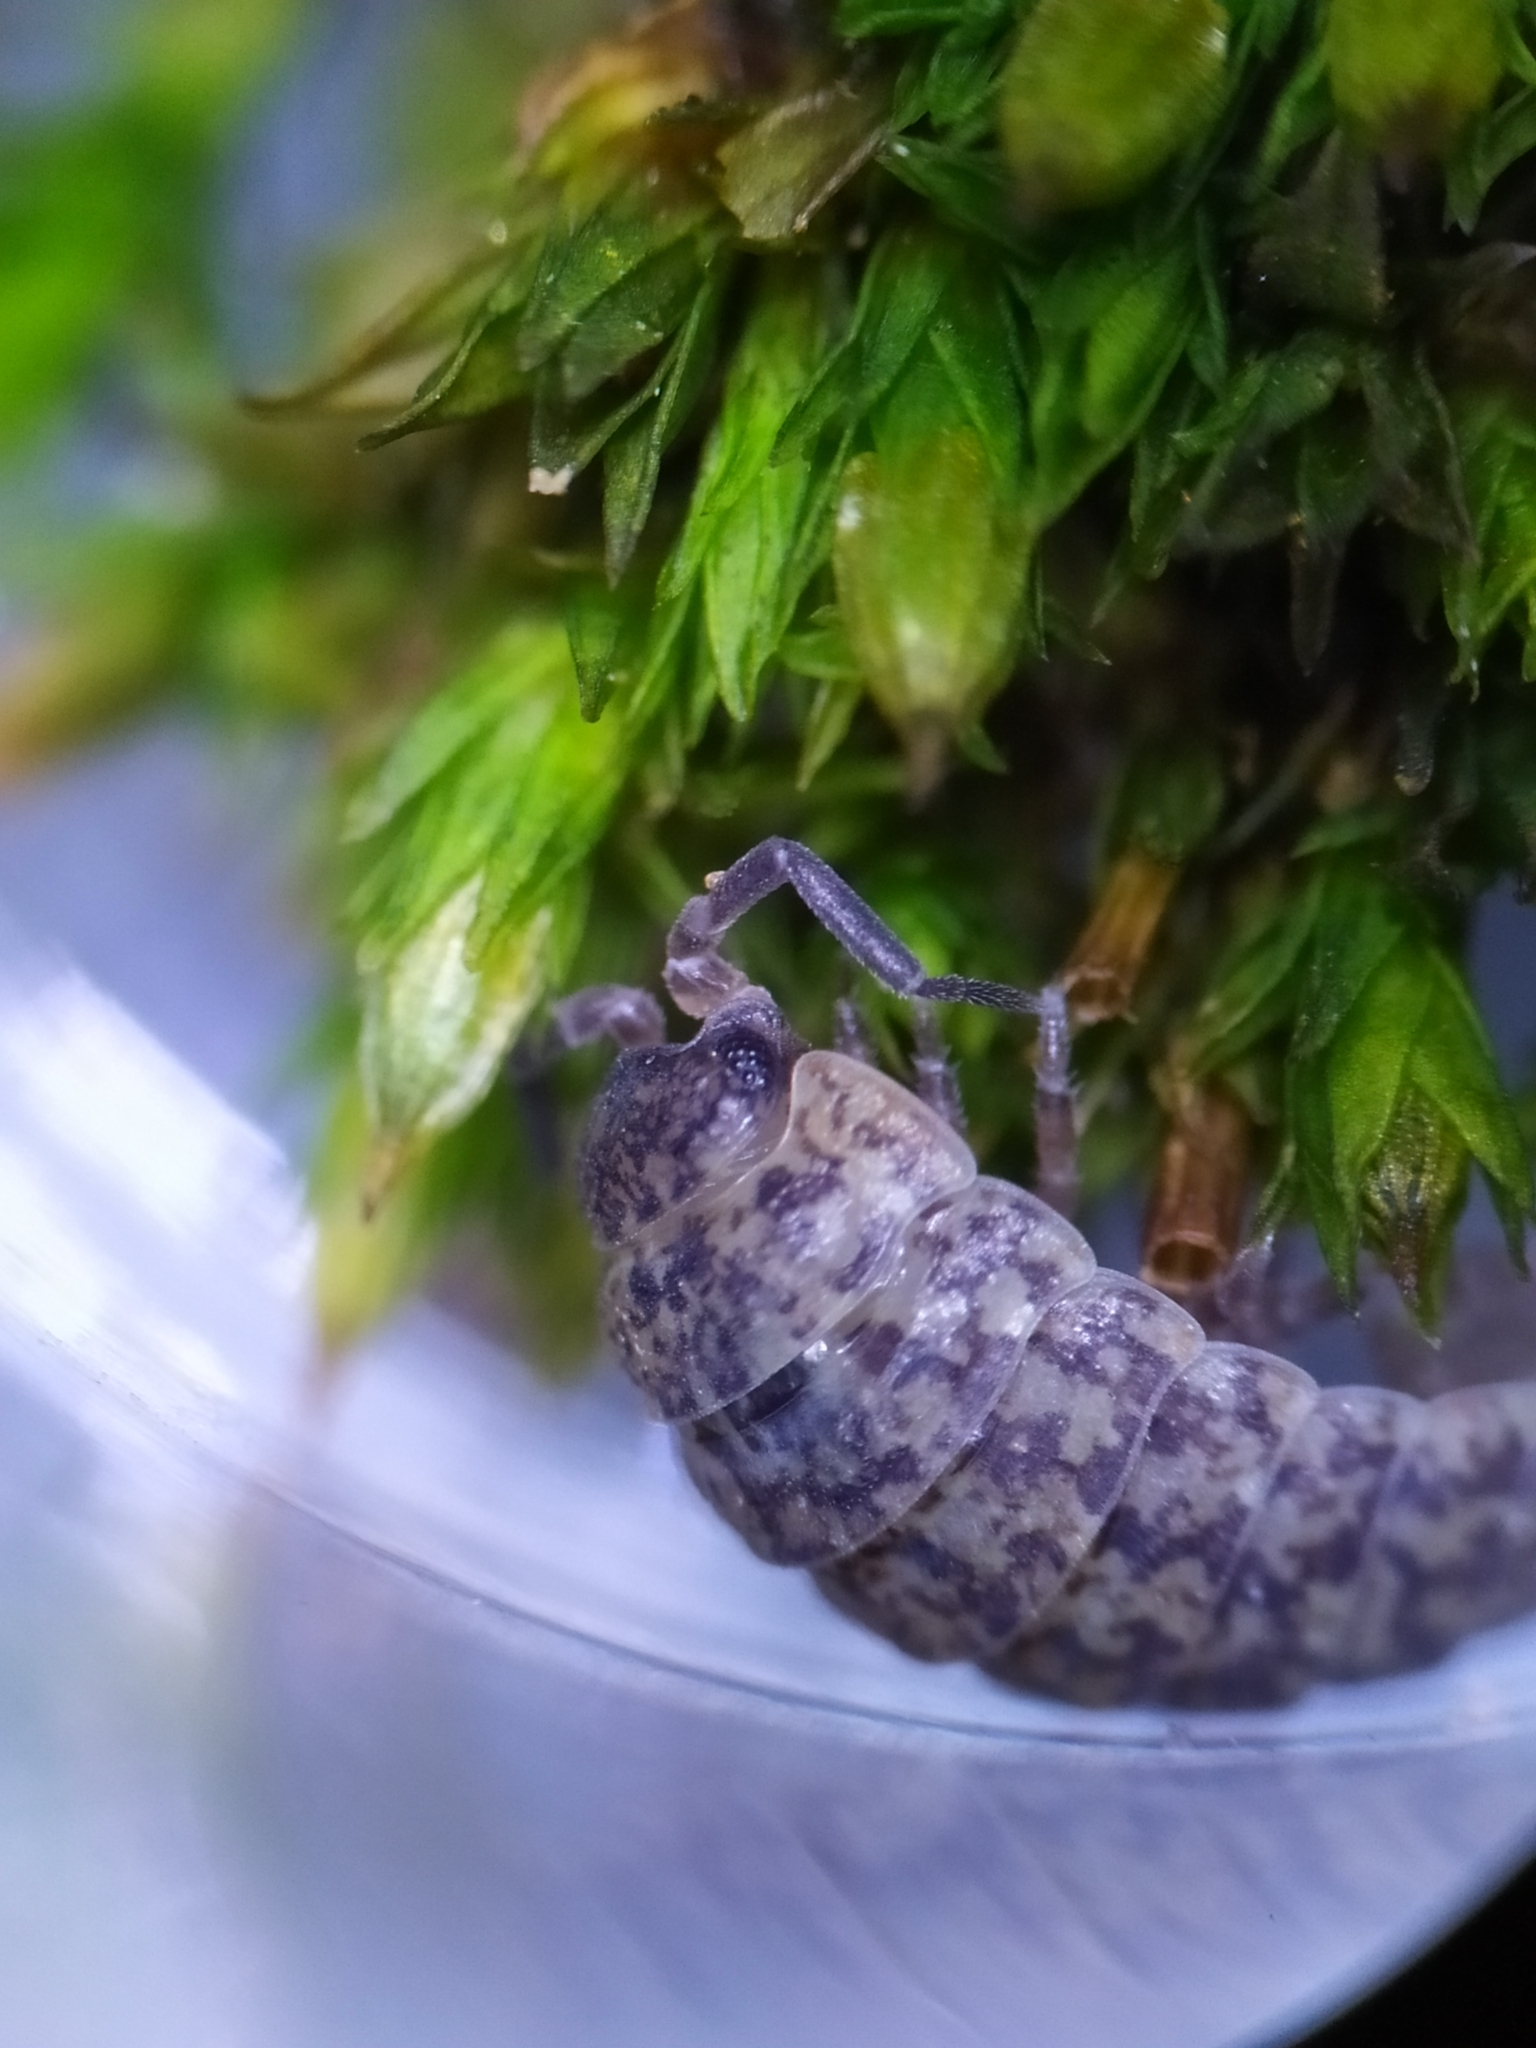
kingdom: Animalia
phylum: Arthropoda
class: Malacostraca
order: Isopoda
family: Trachelipodidae
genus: Porcellium
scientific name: Porcellium collicola
